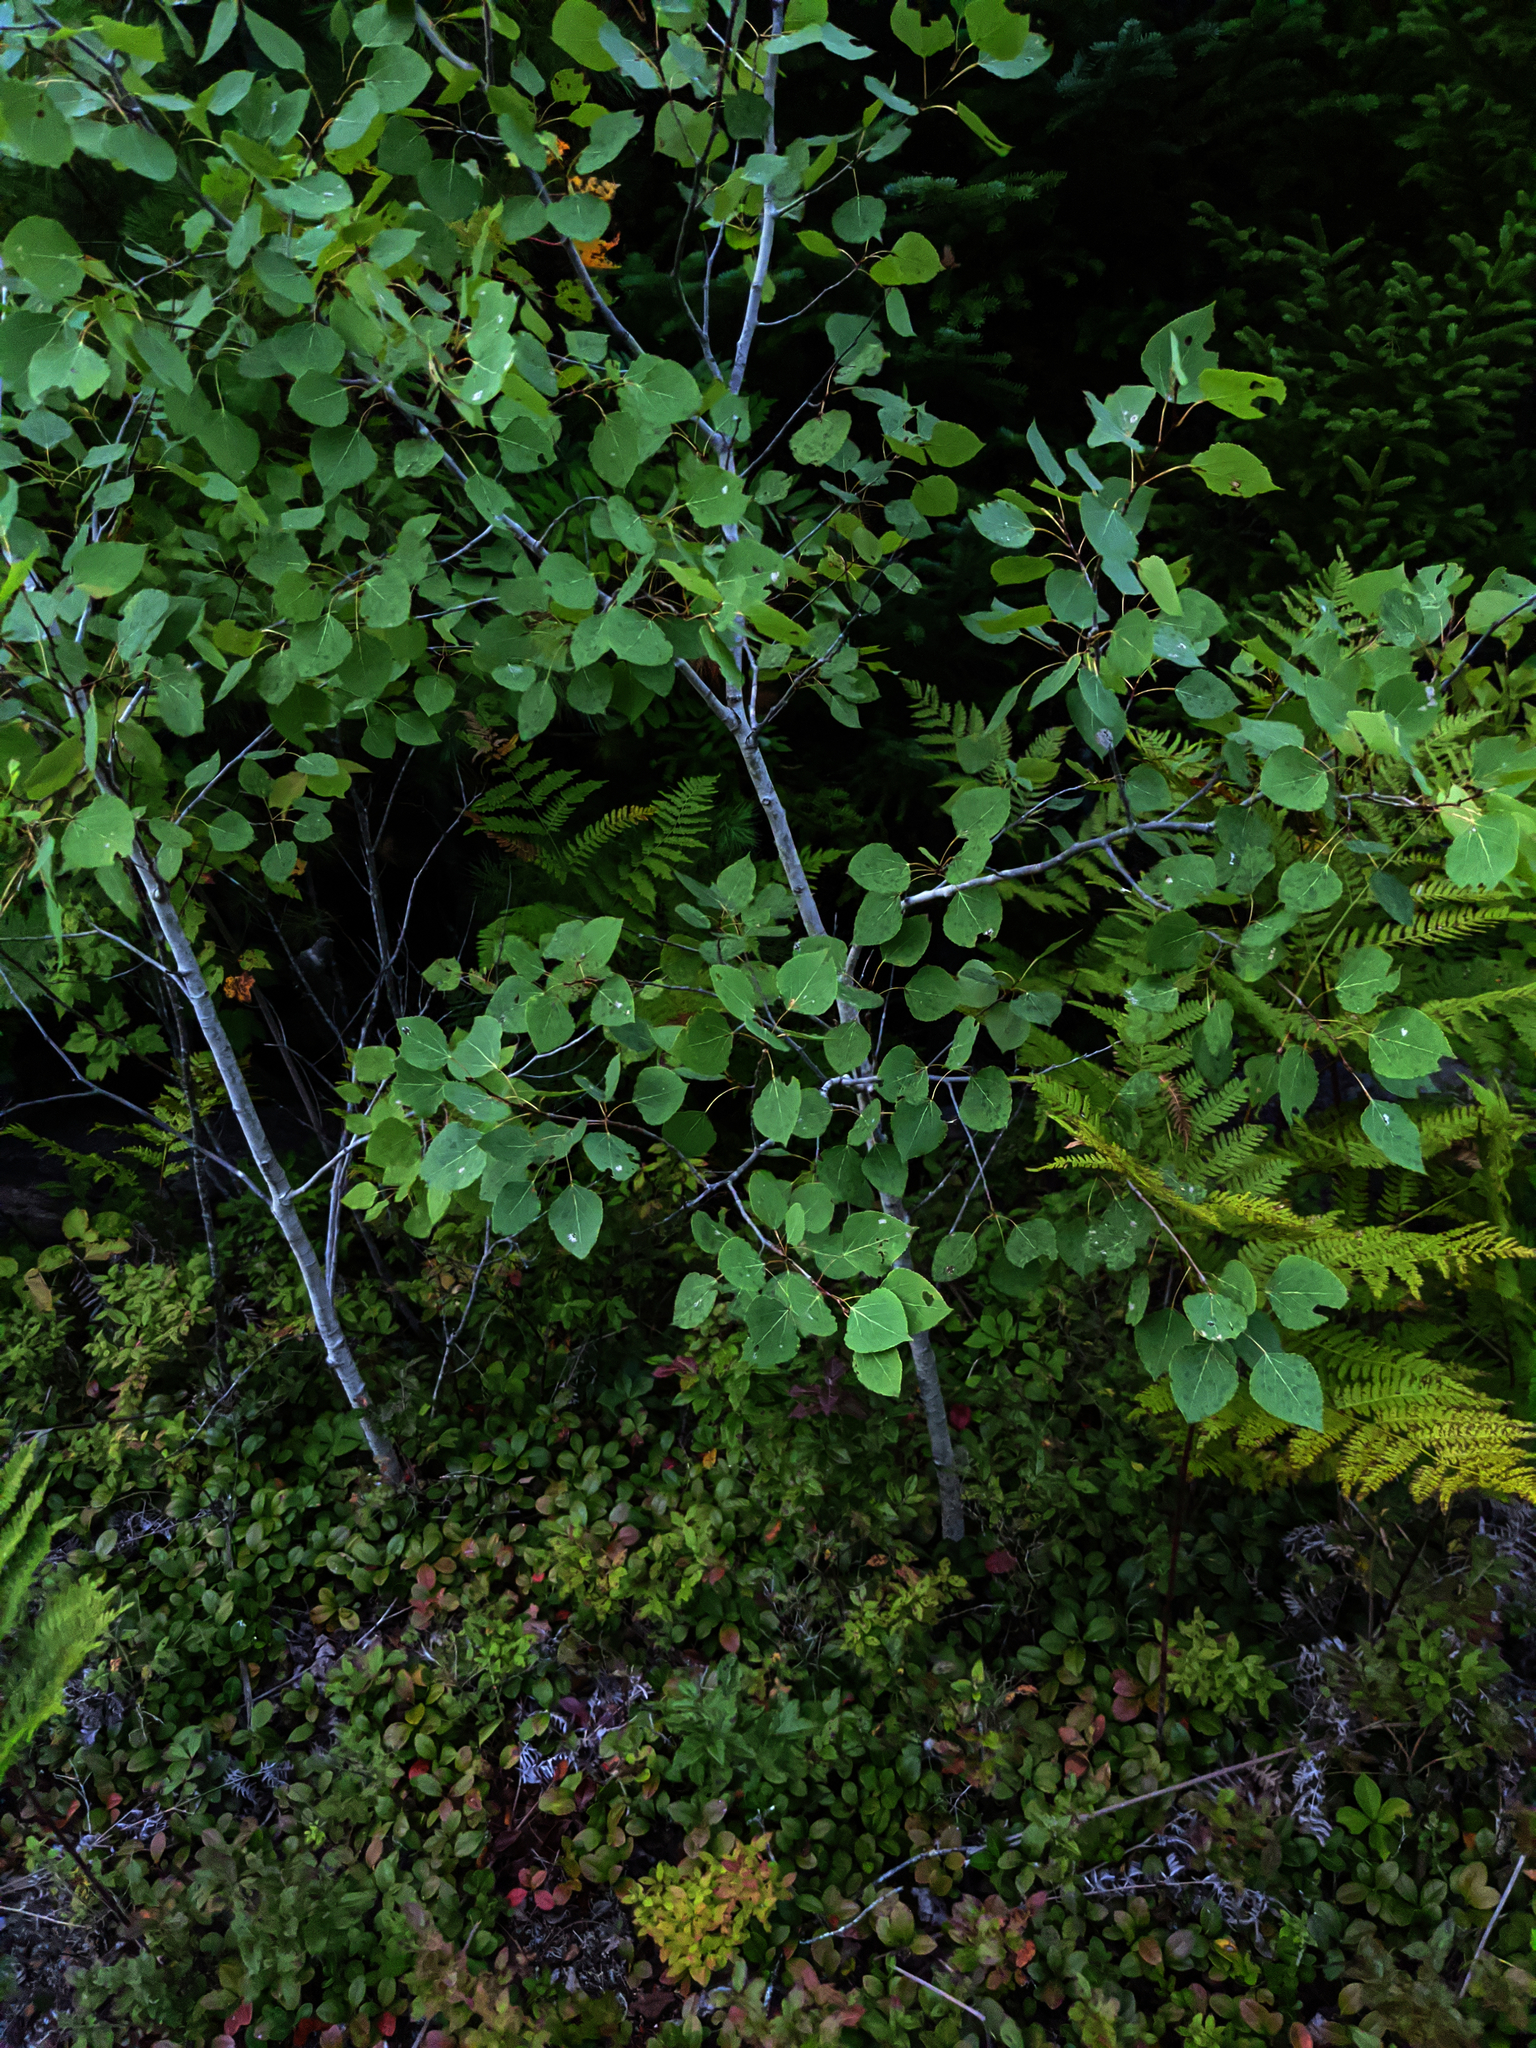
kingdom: Plantae
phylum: Tracheophyta
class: Magnoliopsida
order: Malpighiales
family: Salicaceae
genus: Populus
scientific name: Populus tremuloides
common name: Quaking aspen
